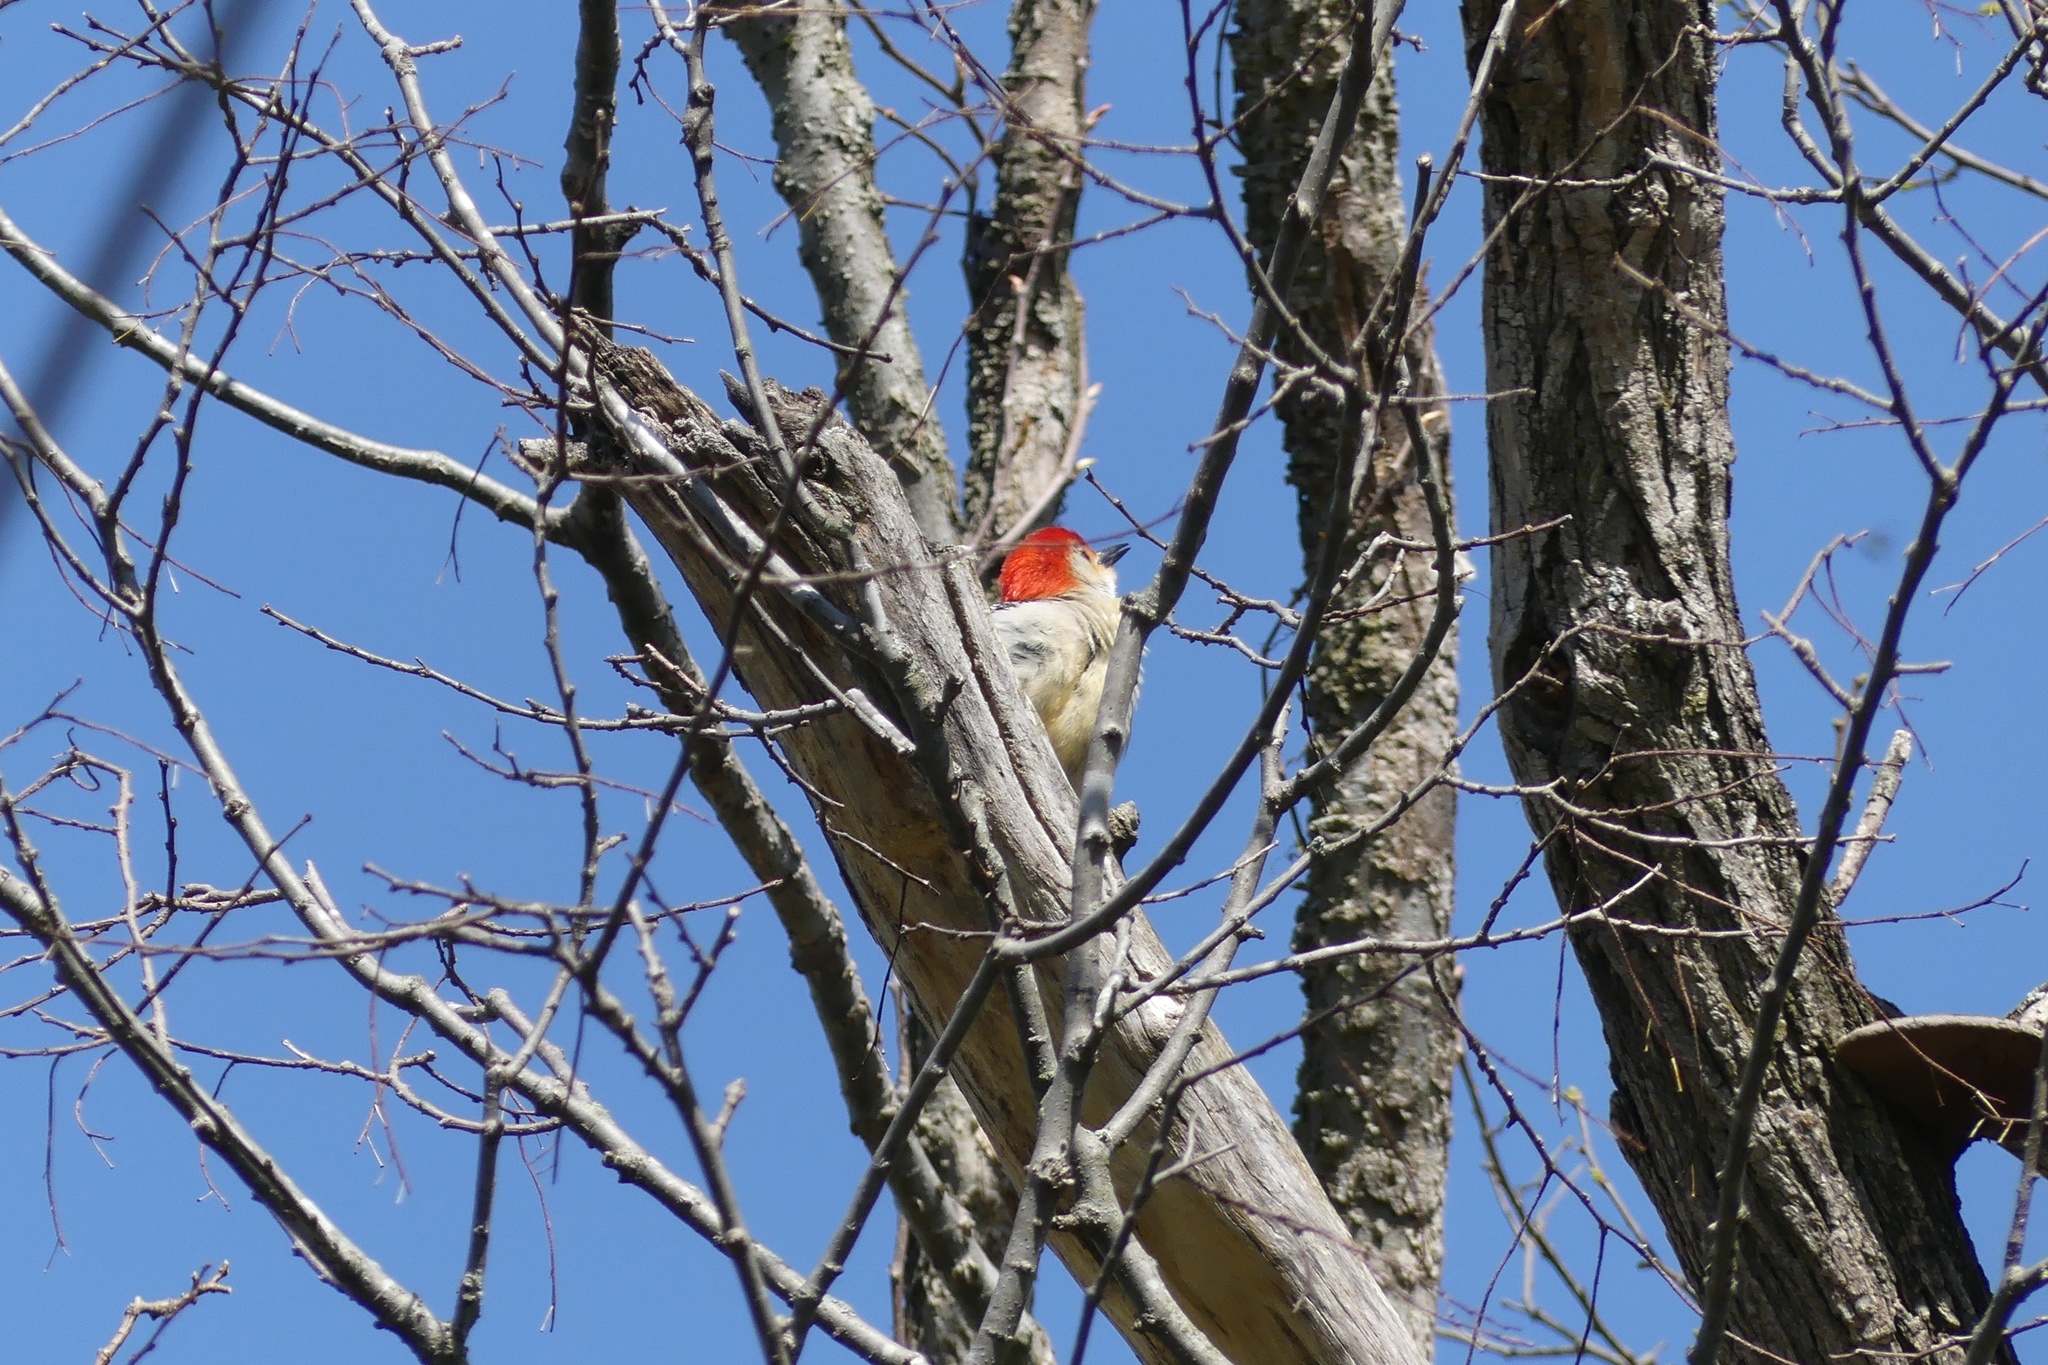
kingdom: Animalia
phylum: Chordata
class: Aves
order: Piciformes
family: Picidae
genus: Melanerpes
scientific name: Melanerpes carolinus
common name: Red-bellied woodpecker
